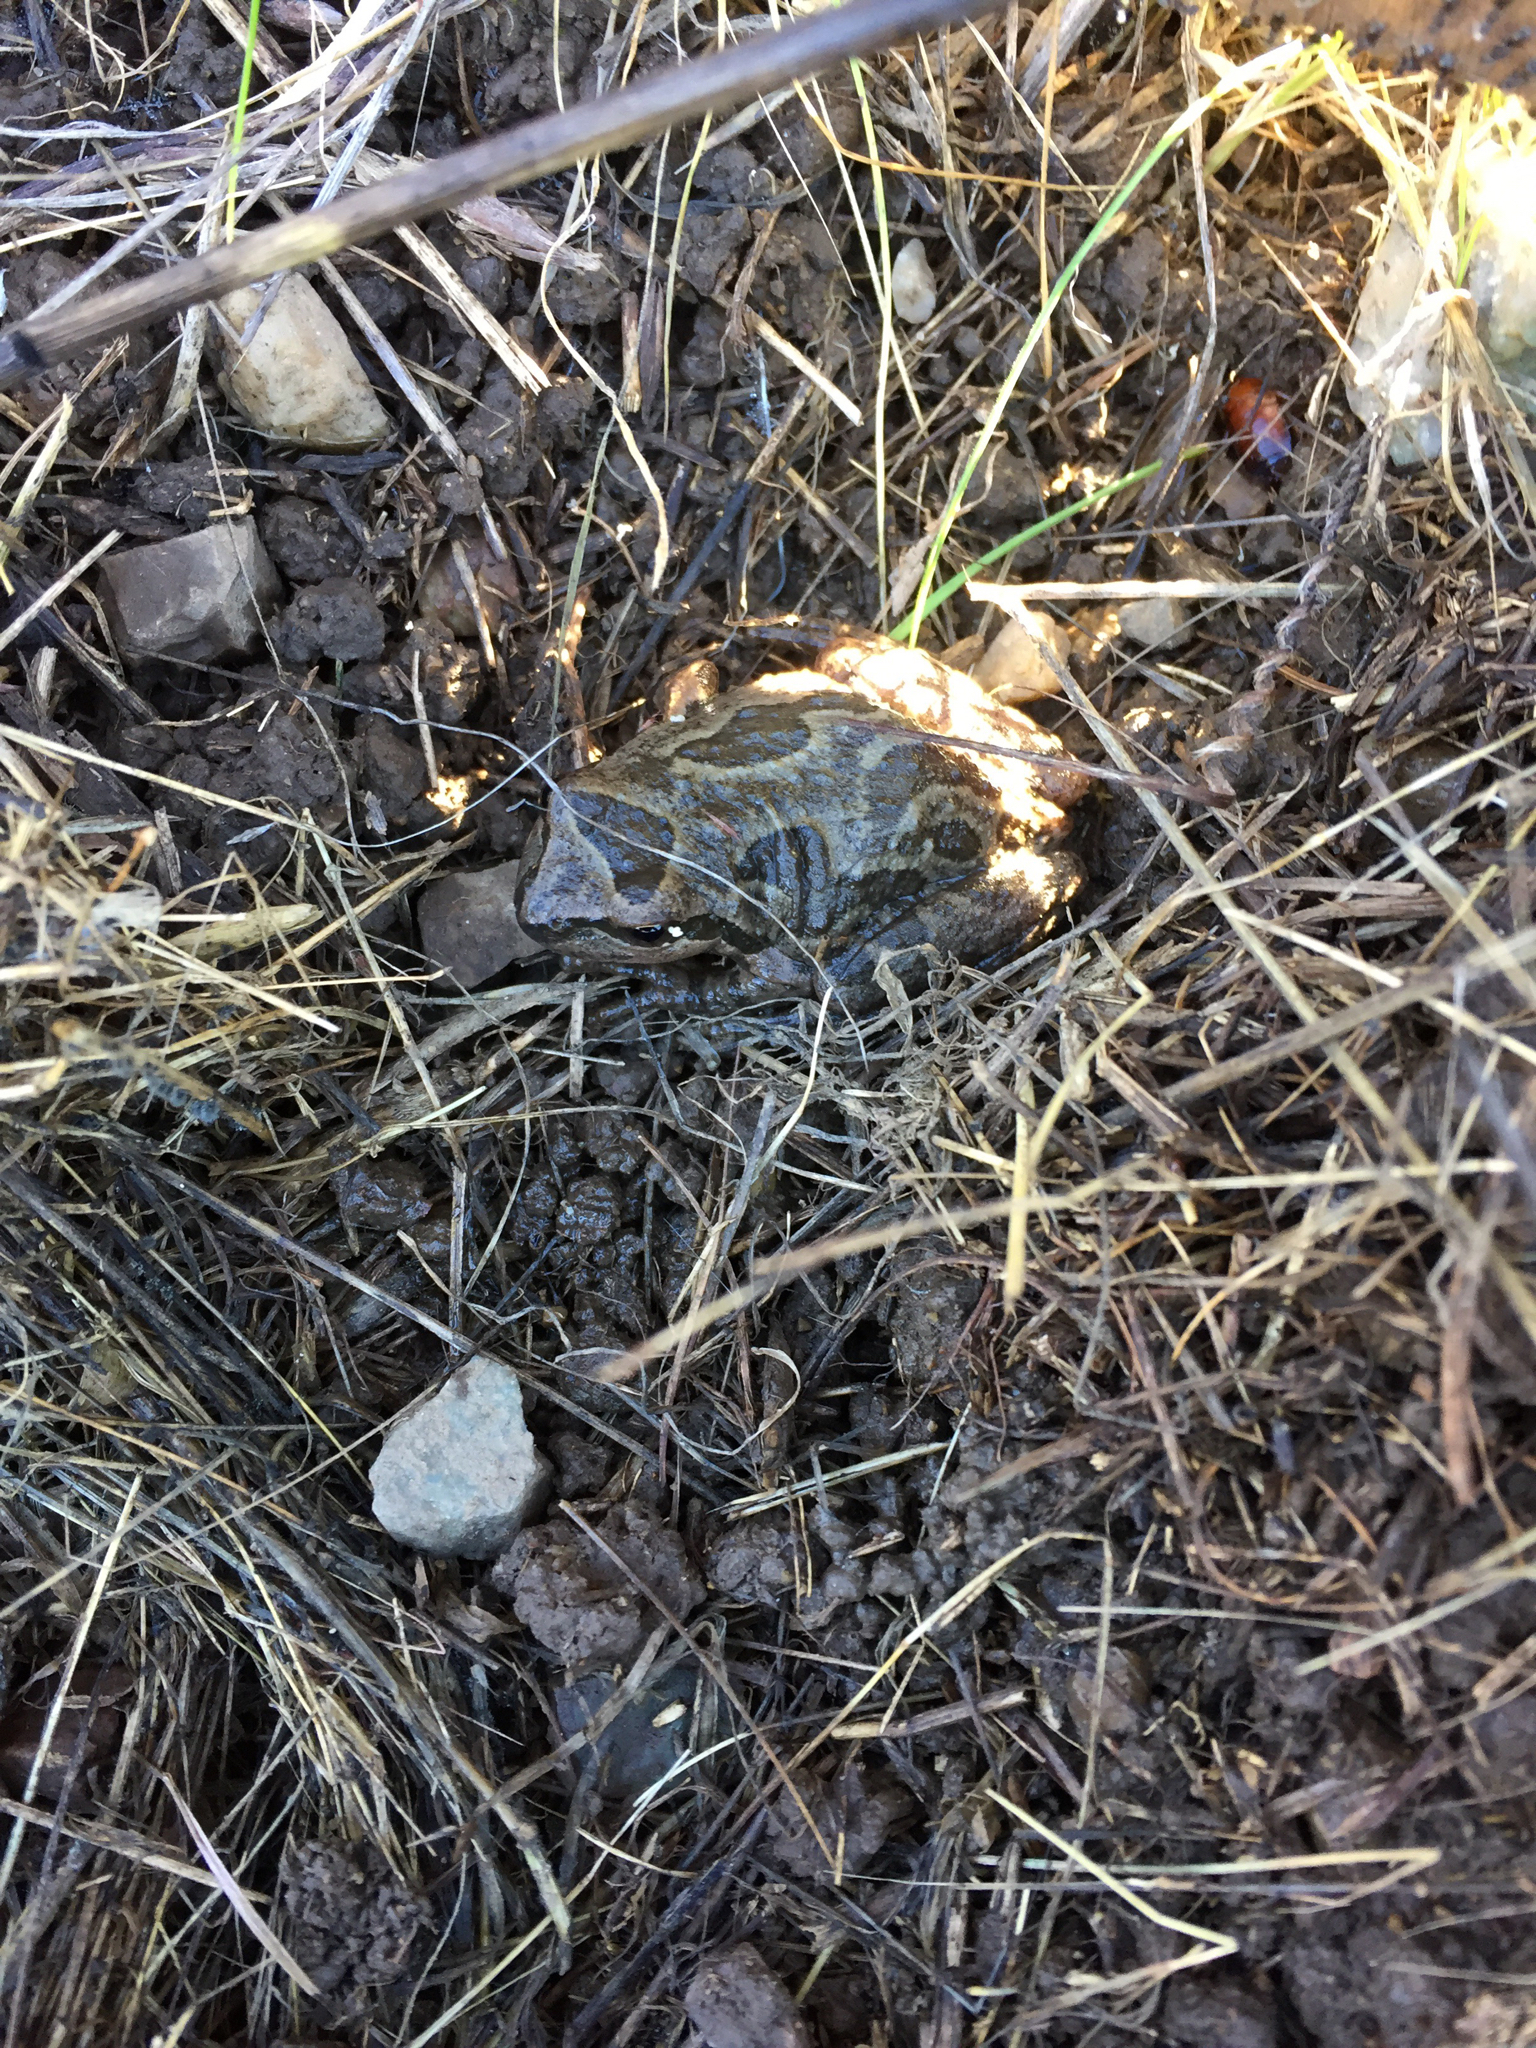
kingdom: Animalia
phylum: Chordata
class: Amphibia
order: Anura
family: Hylidae
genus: Pseudacris
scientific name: Pseudacris regilla
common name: Pacific chorus frog
